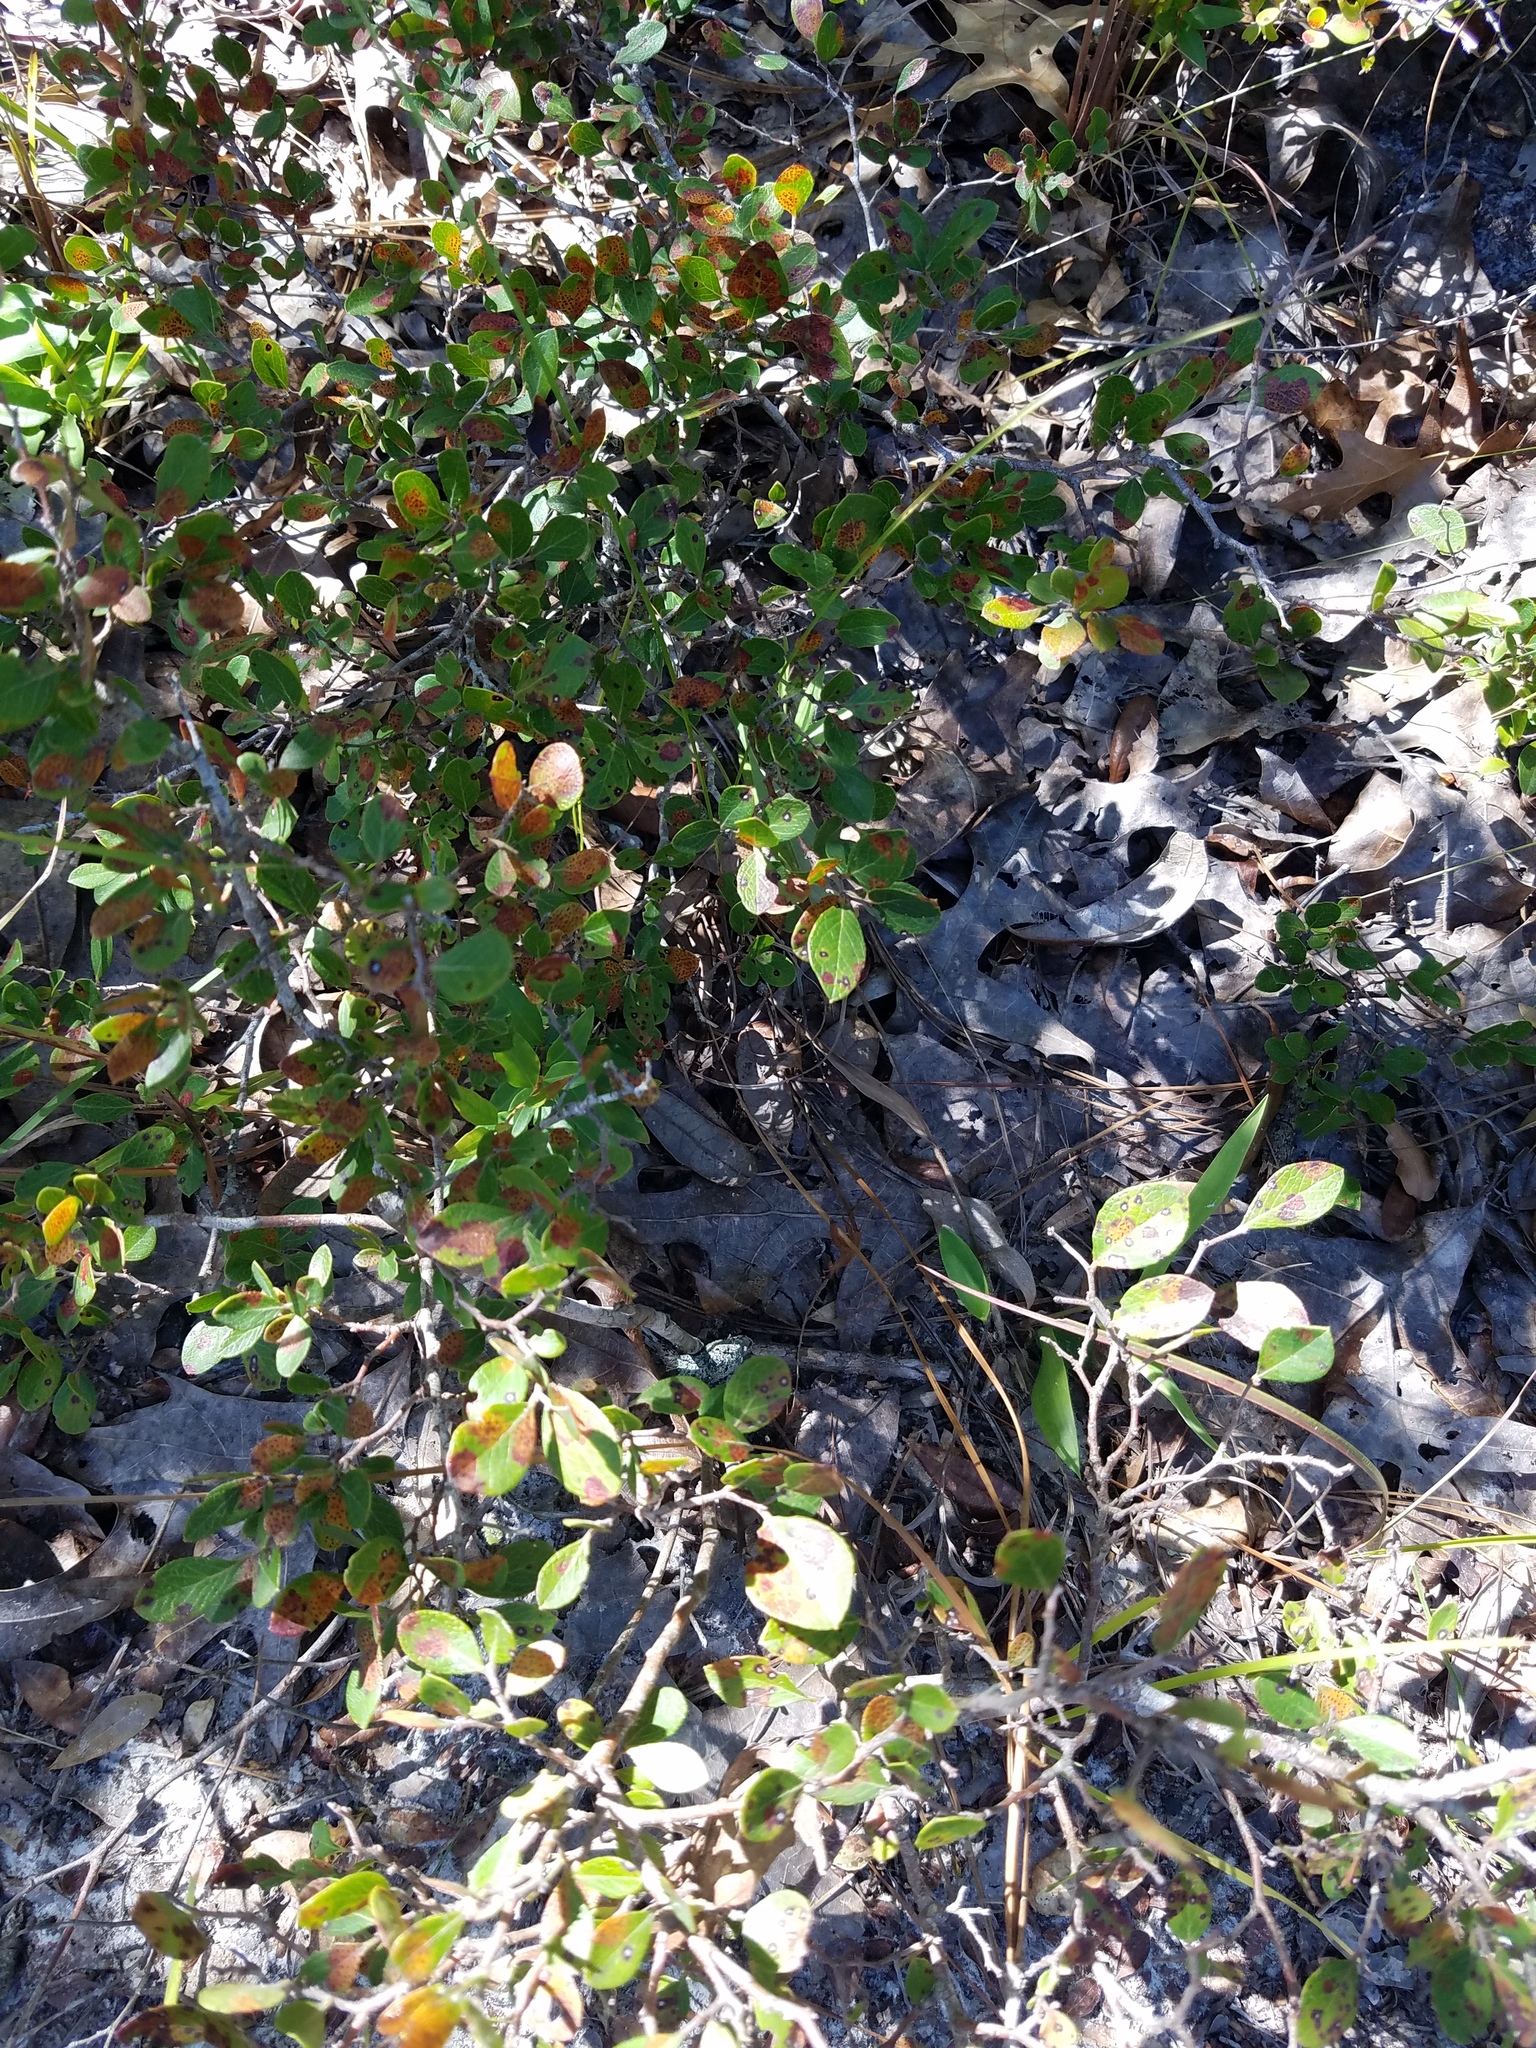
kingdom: Plantae
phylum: Tracheophyta
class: Magnoliopsida
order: Ericales
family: Ericaceae
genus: Vaccinium
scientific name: Vaccinium arboreum
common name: Farkleberry
